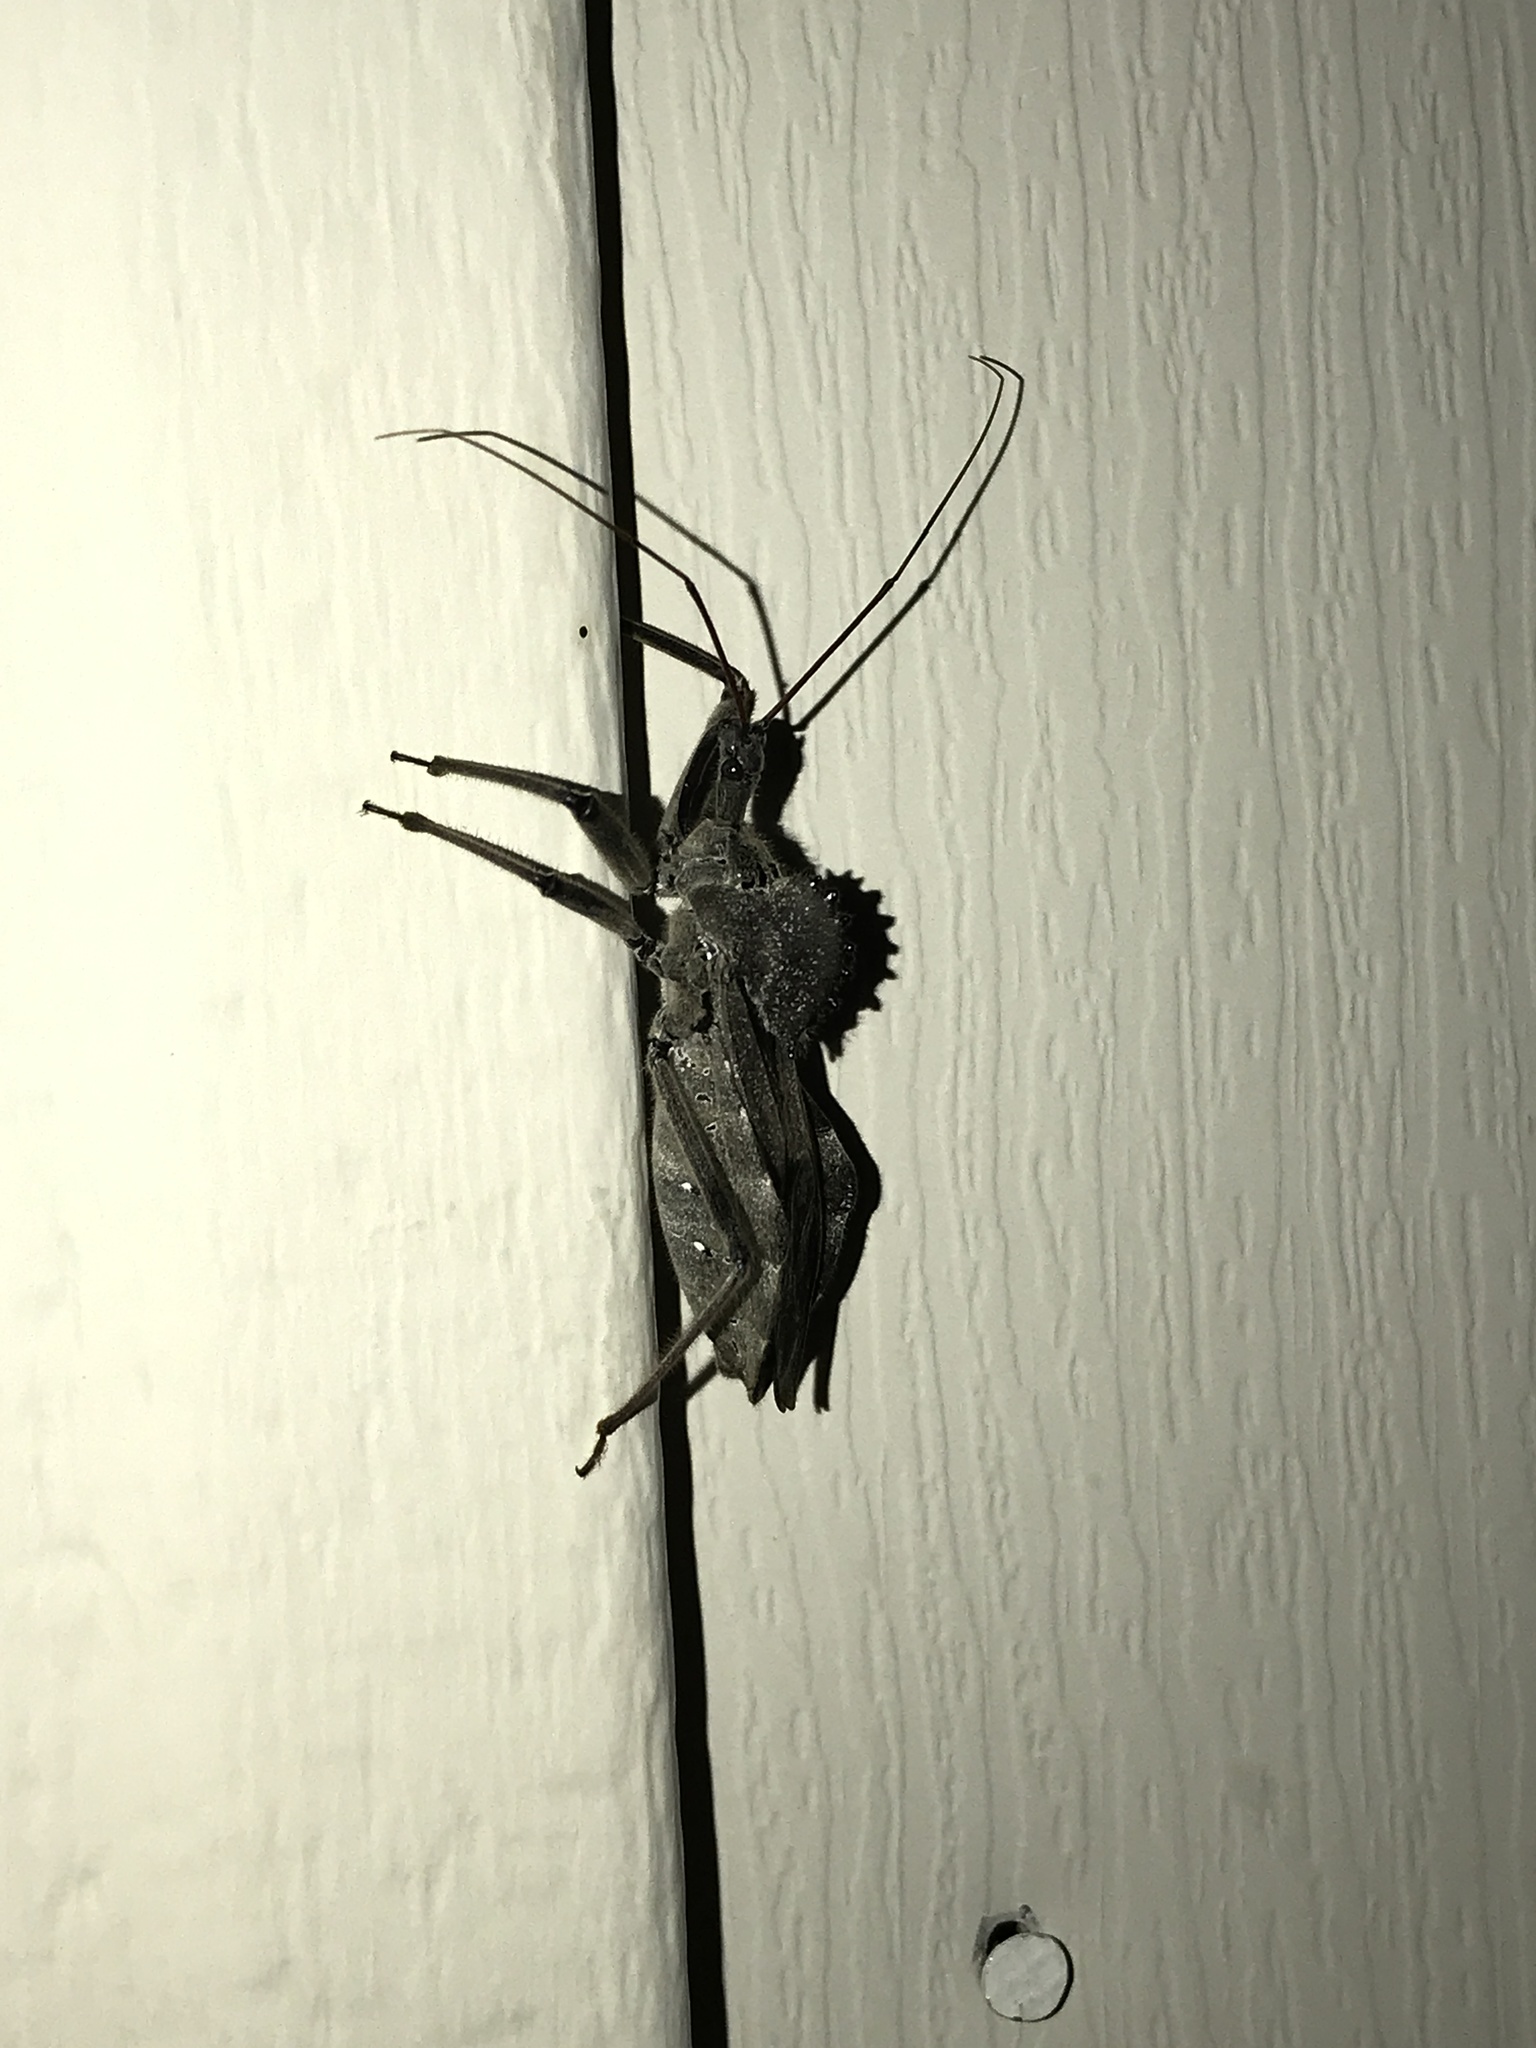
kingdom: Animalia
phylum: Arthropoda
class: Insecta
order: Hemiptera
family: Reduviidae
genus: Arilus
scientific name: Arilus cristatus
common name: North american wheel bug
